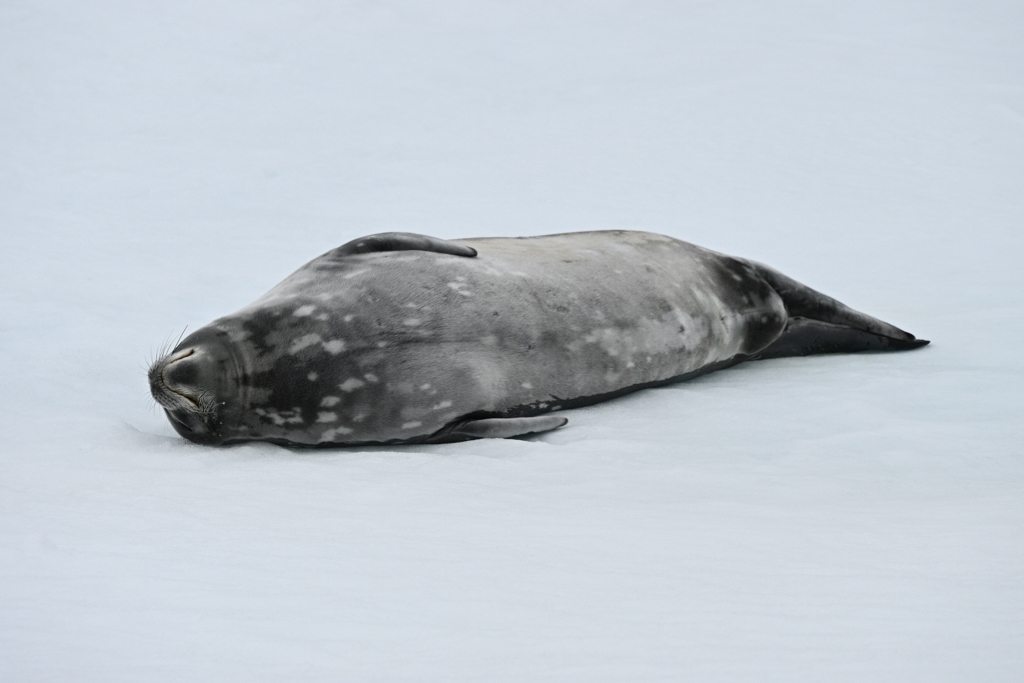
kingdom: Animalia
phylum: Chordata
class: Mammalia
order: Carnivora
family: Phocidae
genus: Leptonychotes
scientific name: Leptonychotes weddellii
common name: Weddell seal
